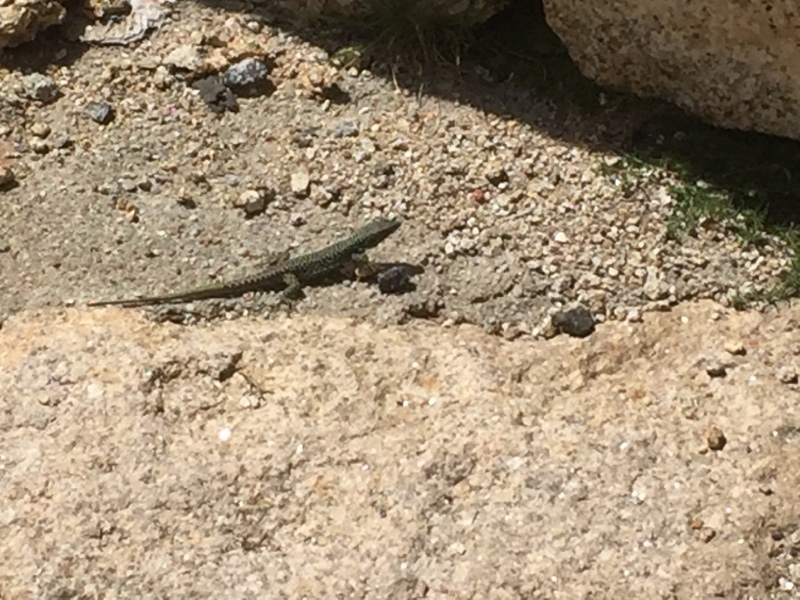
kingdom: Animalia
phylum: Chordata
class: Squamata
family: Lacertidae
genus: Iberolacerta
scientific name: Iberolacerta monticola
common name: Iberian mountain lizard
